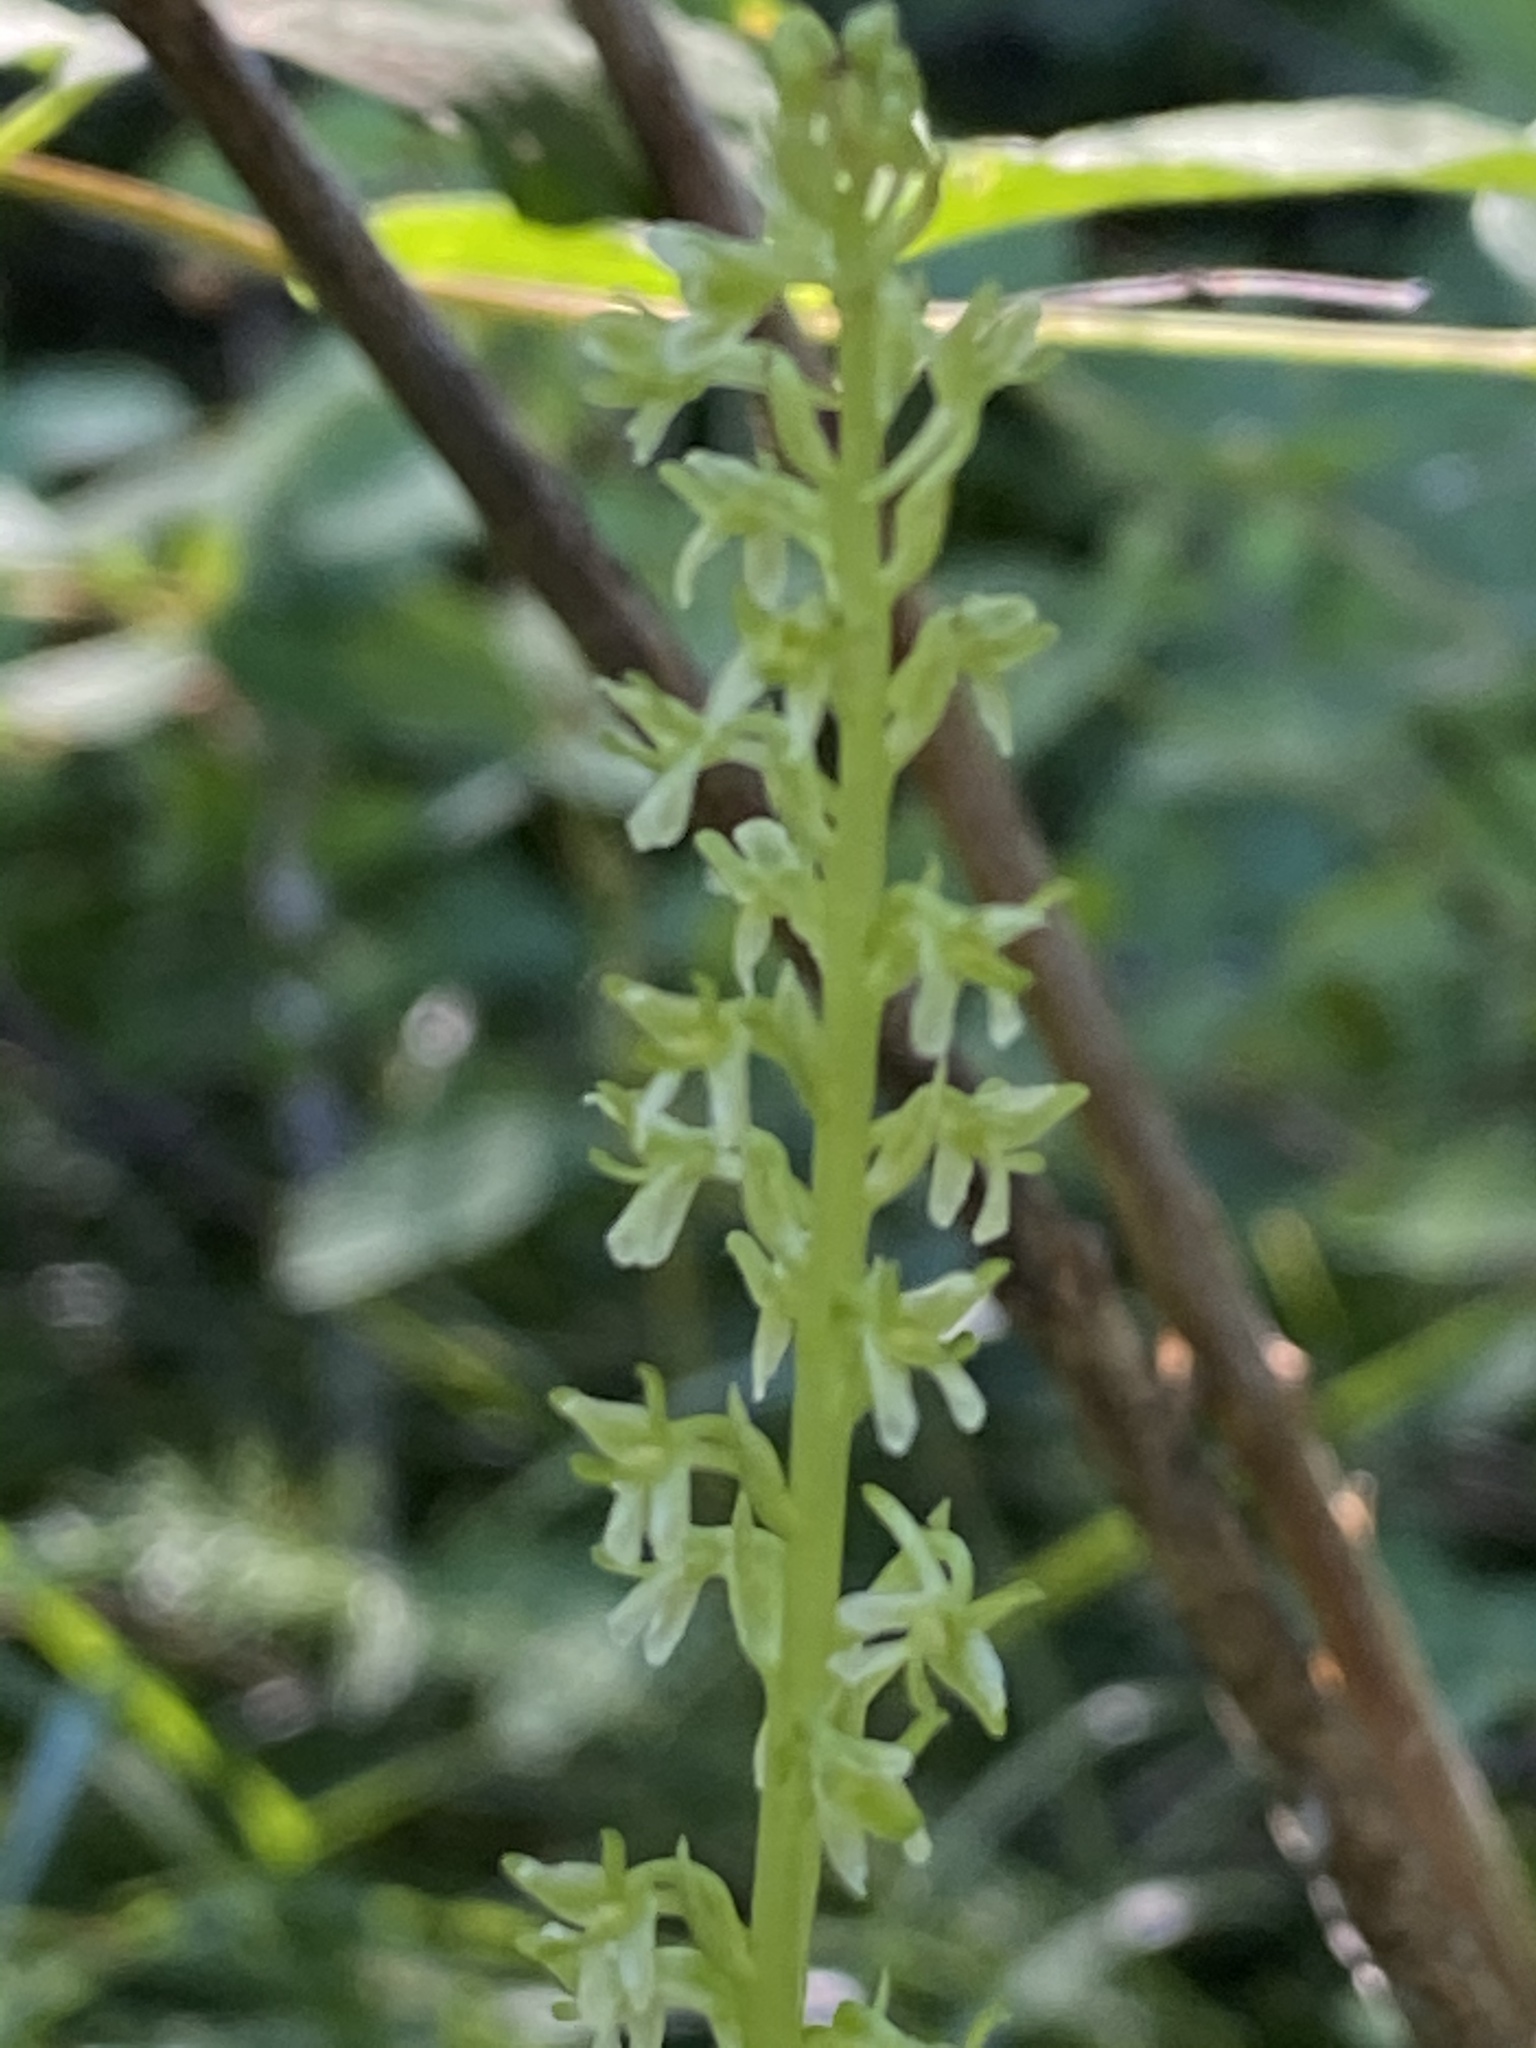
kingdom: Plantae
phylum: Tracheophyta
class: Liliopsida
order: Asparagales
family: Orchidaceae
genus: Platanthera
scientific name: Platanthera unalascensis
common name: Alaska bog orchid
